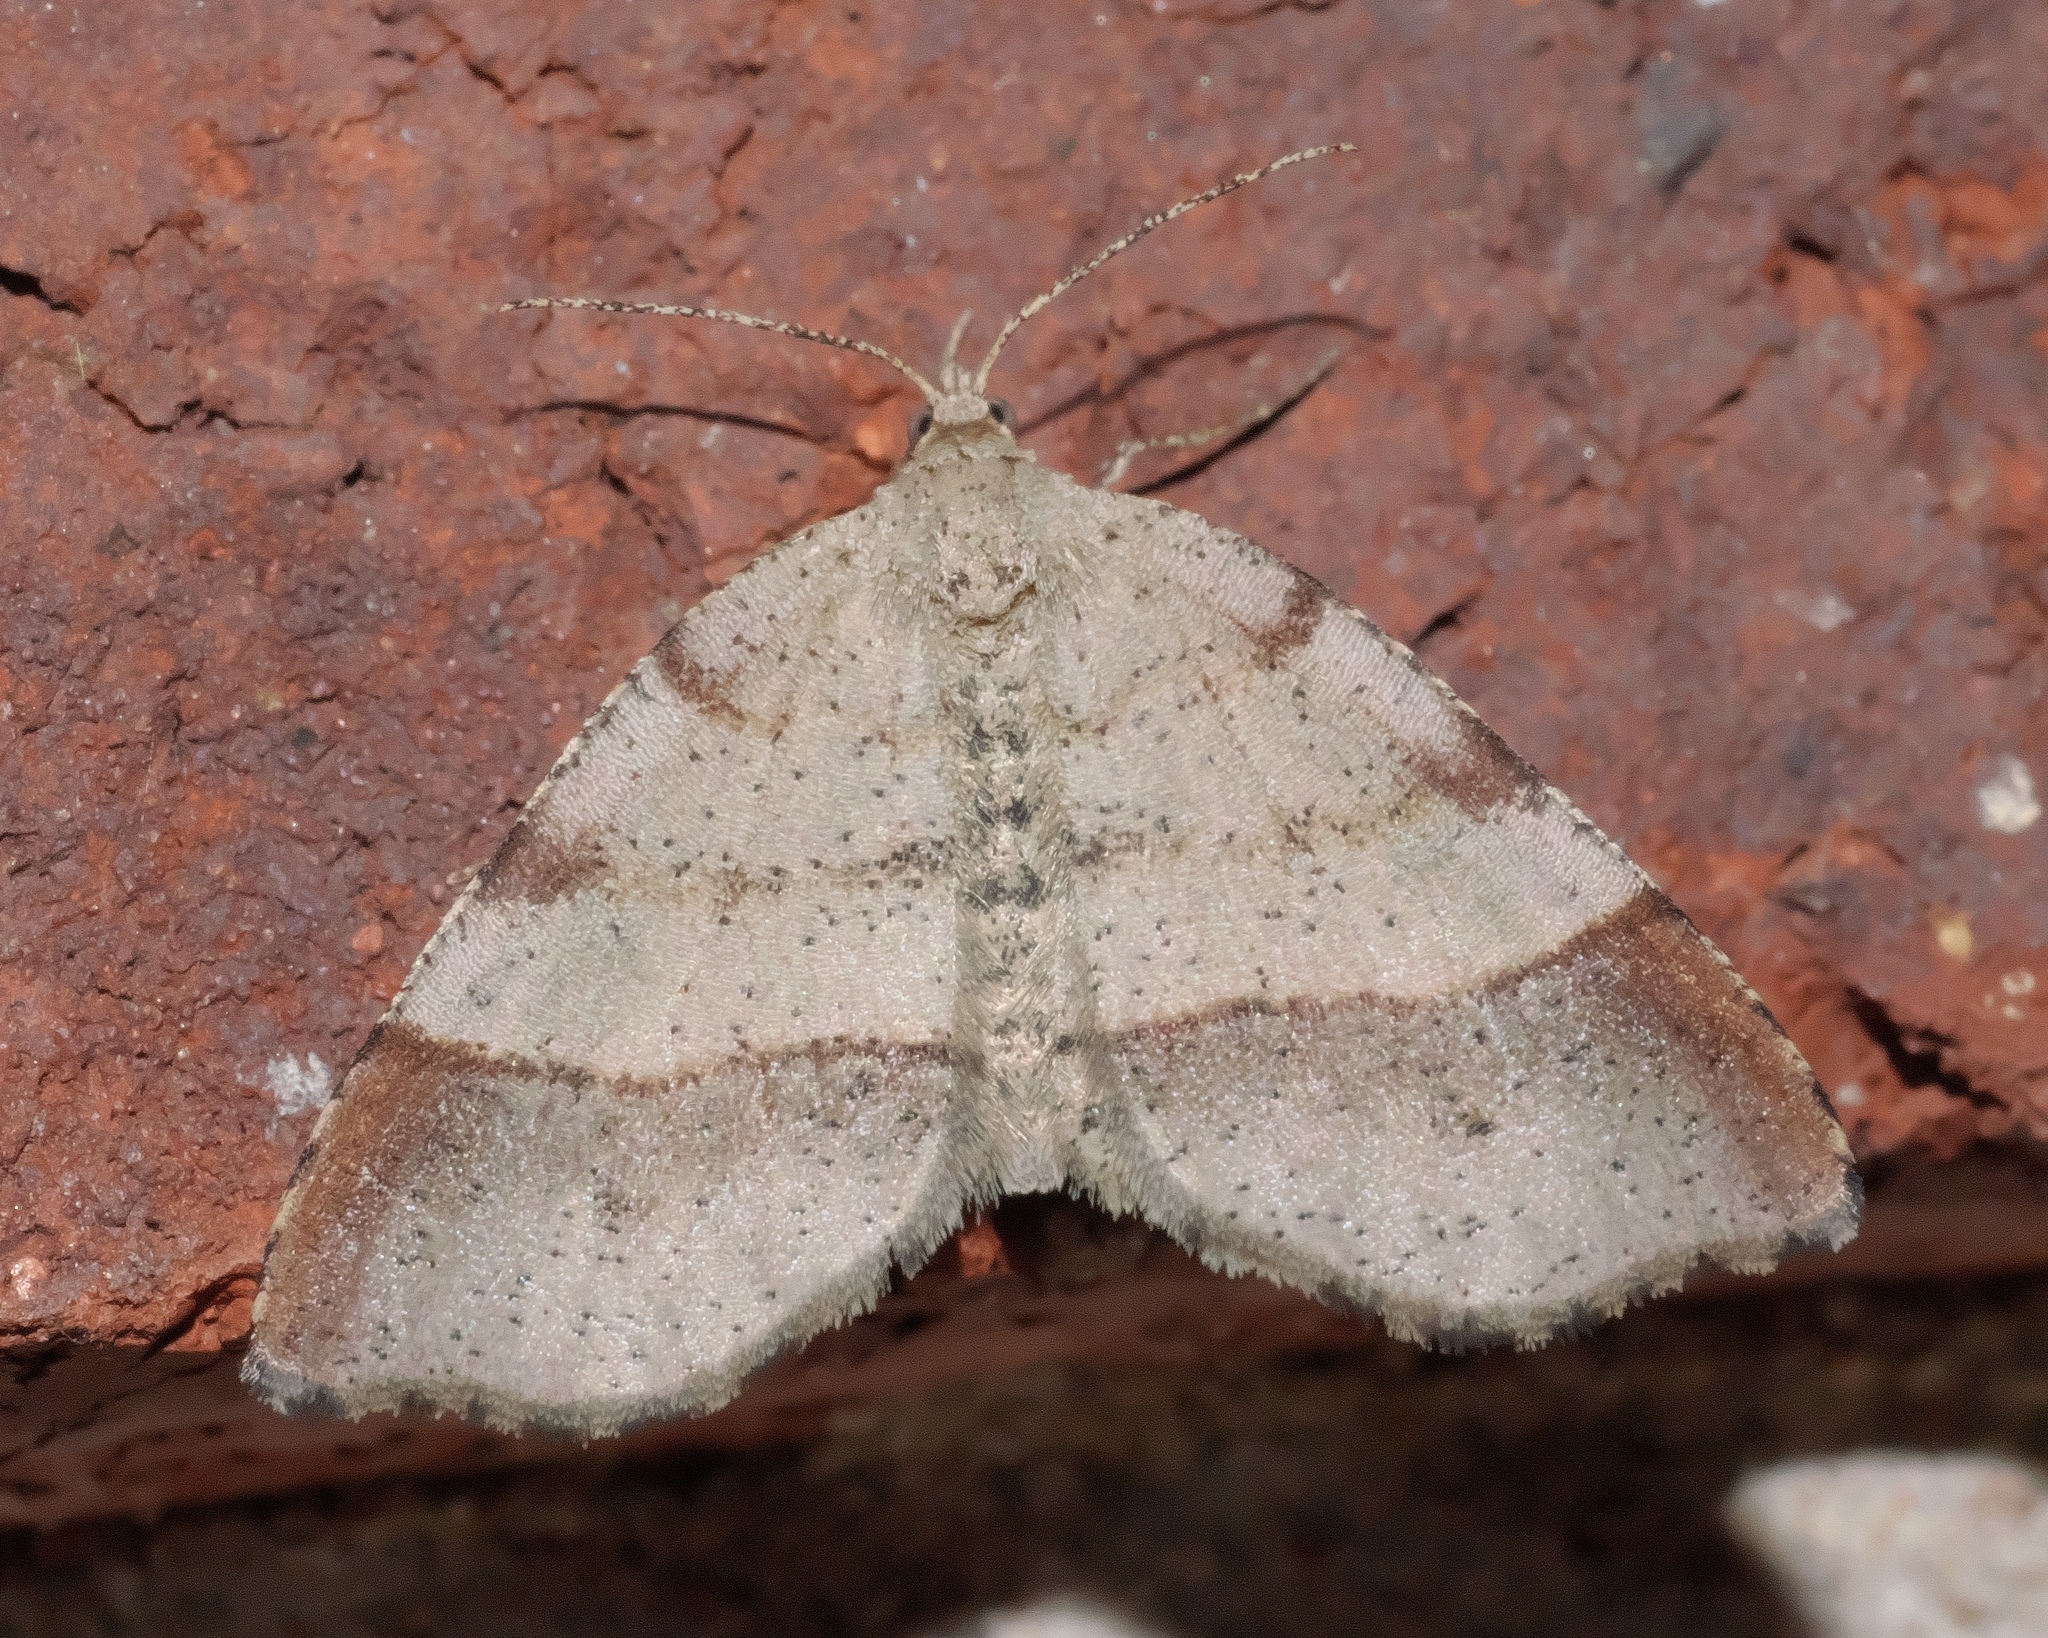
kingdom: Animalia
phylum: Arthropoda
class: Insecta
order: Lepidoptera
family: Geometridae
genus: Mellilla
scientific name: Mellilla xanthometata
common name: Orange wing moth
